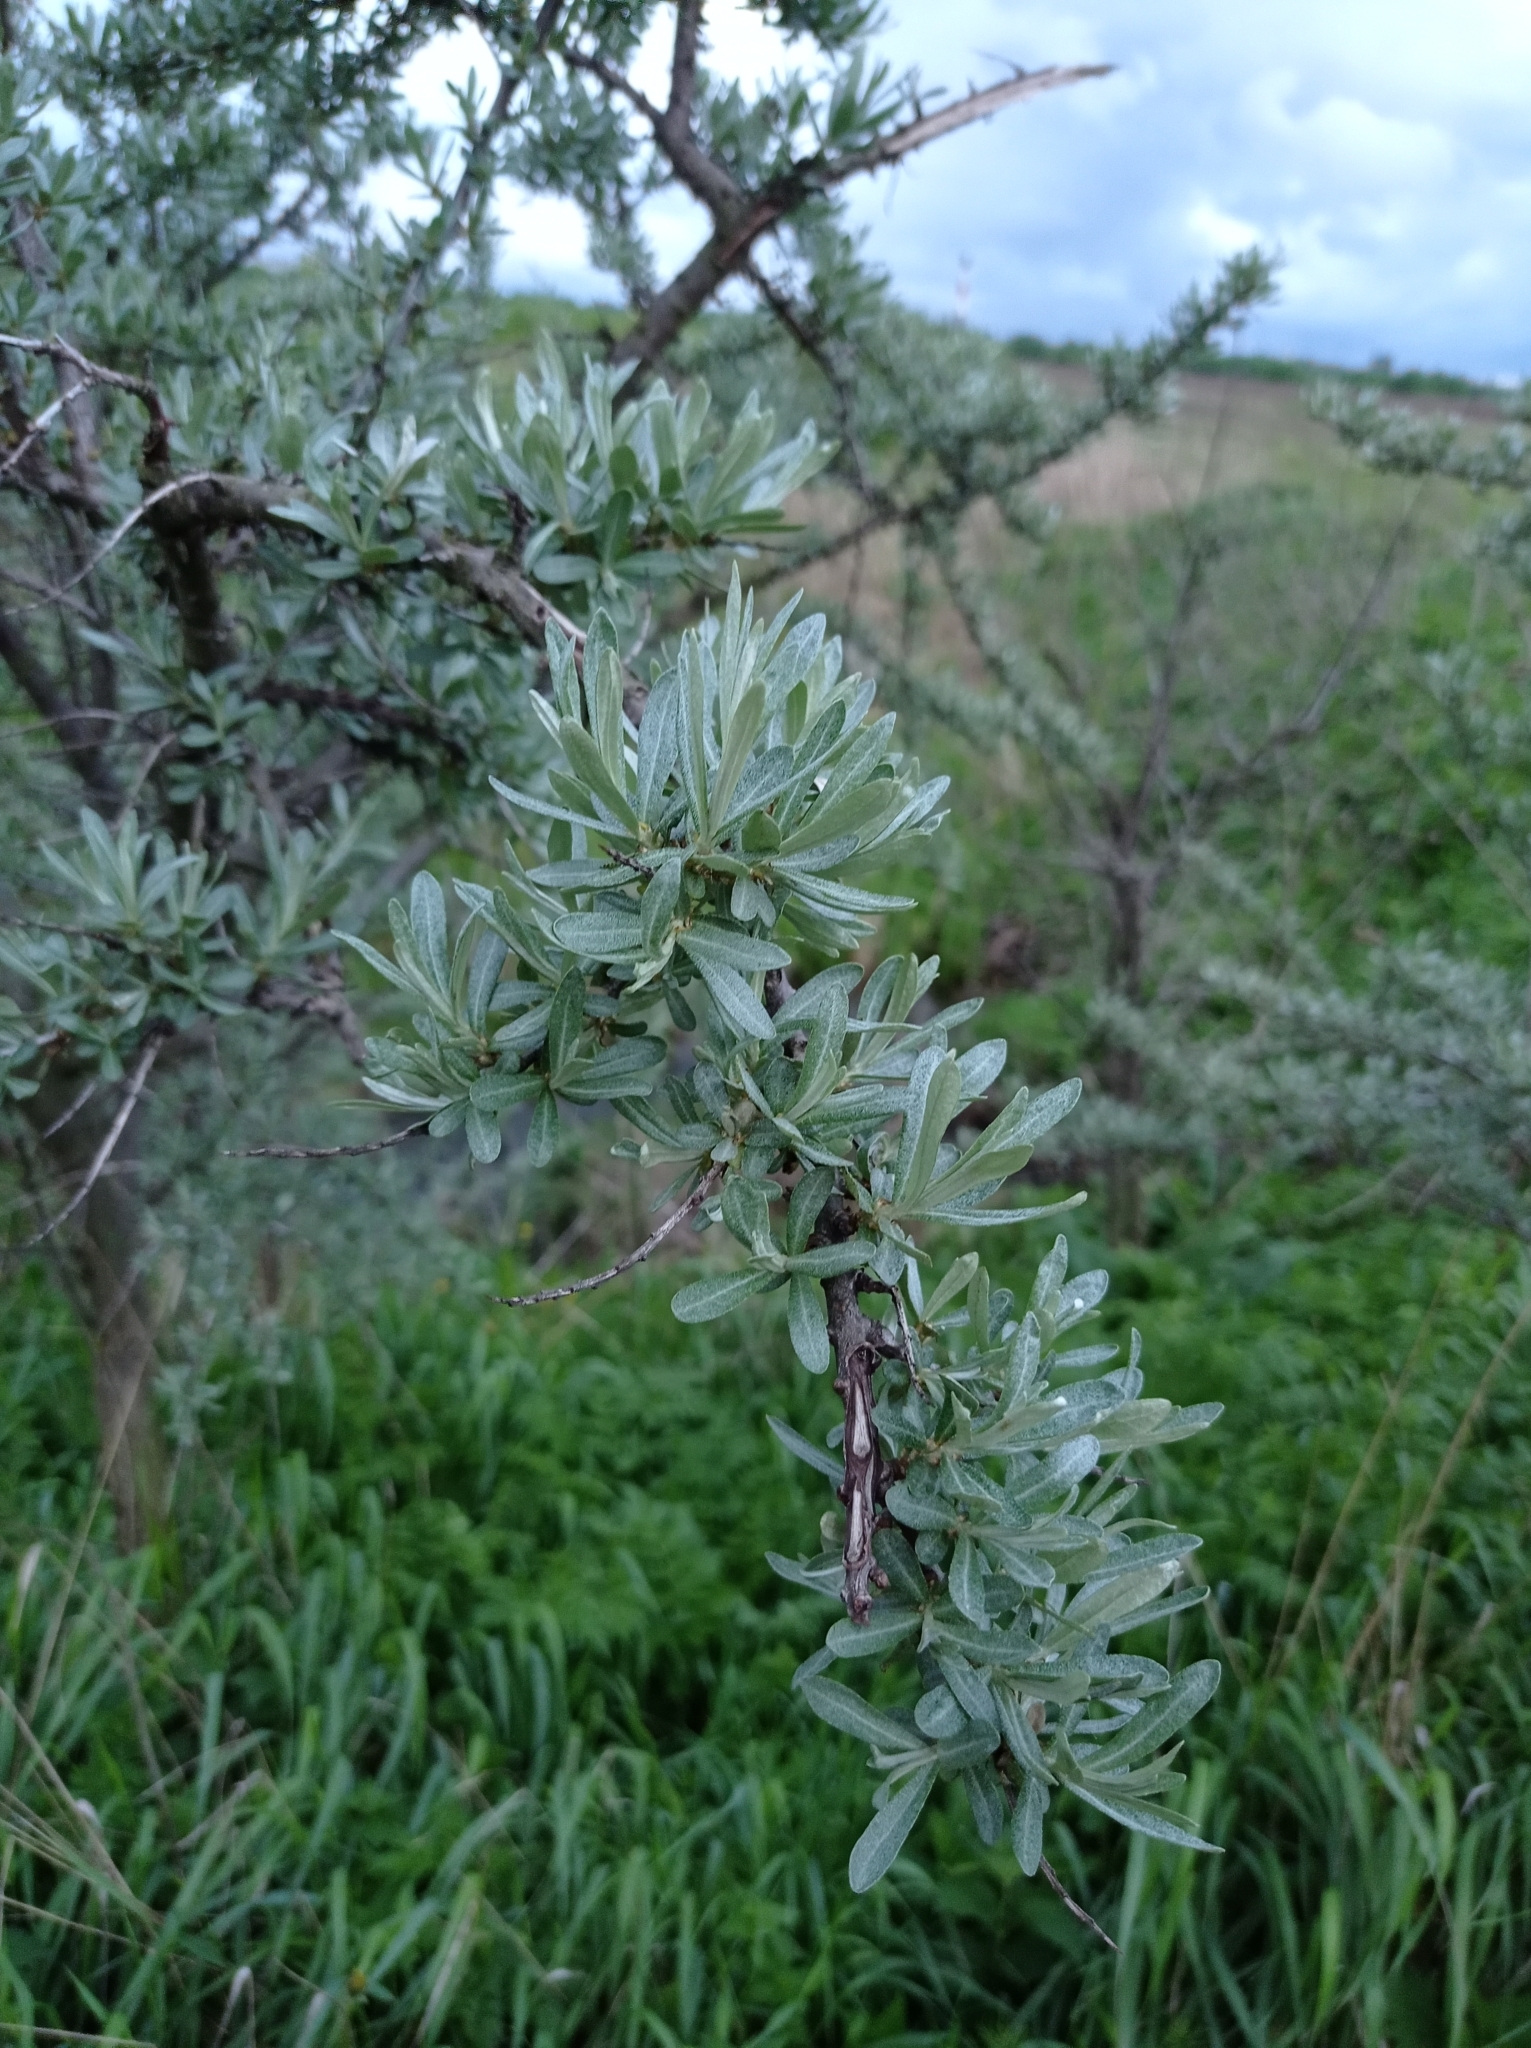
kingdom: Plantae
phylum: Tracheophyta
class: Magnoliopsida
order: Rosales
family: Elaeagnaceae
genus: Hippophae
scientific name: Hippophae rhamnoides
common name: Sea-buckthorn
